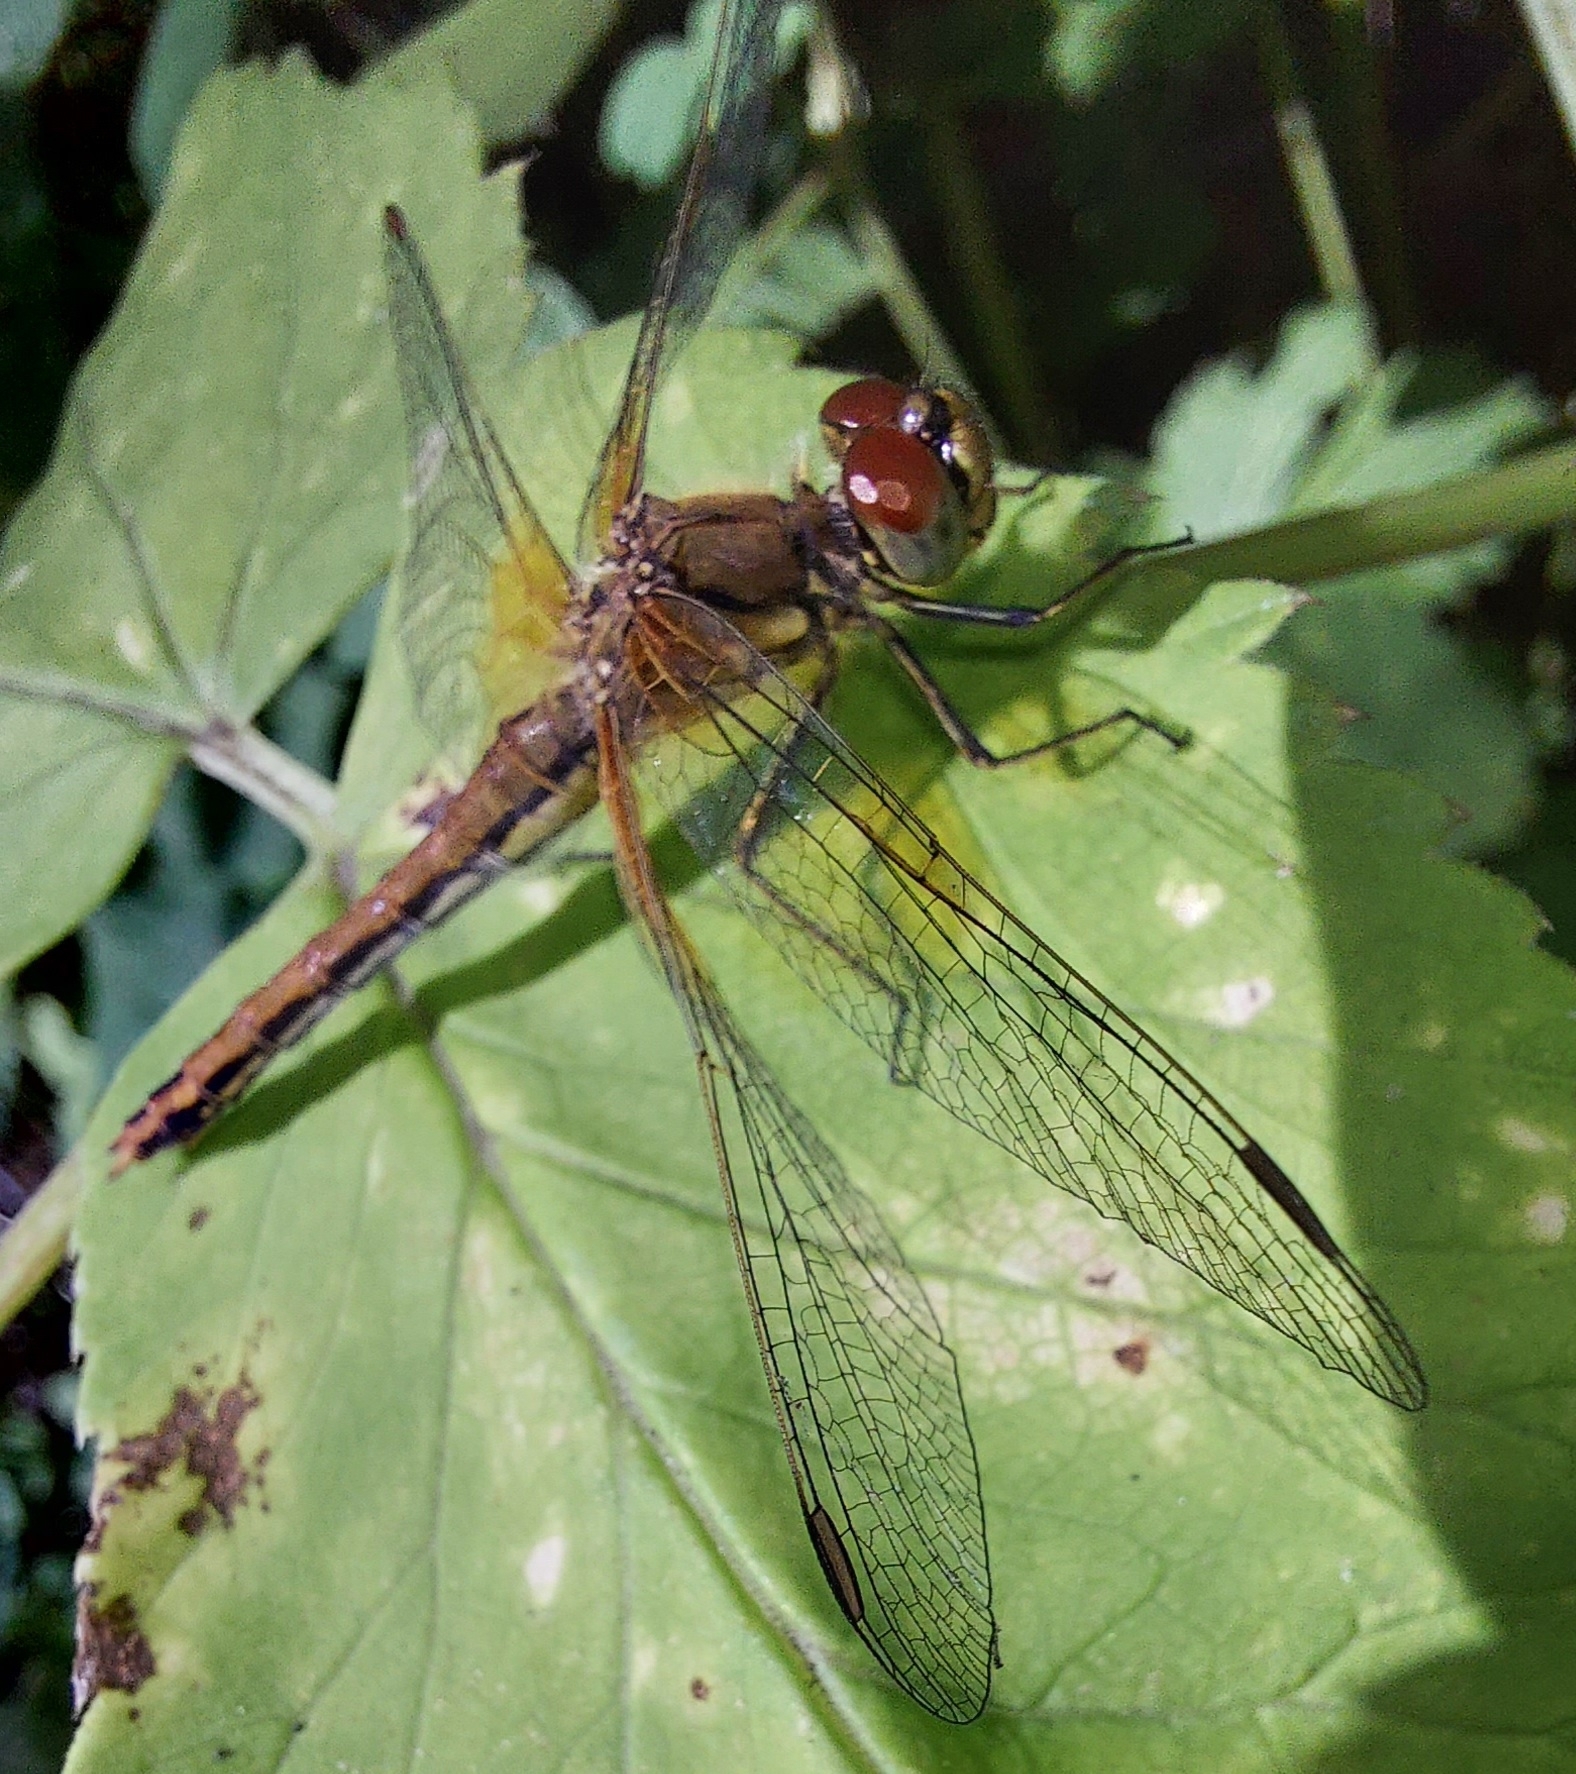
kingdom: Animalia
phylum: Arthropoda
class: Insecta
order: Odonata
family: Libellulidae
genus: Sympetrum
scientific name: Sympetrum flaveolum
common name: Yellow-winged darter
